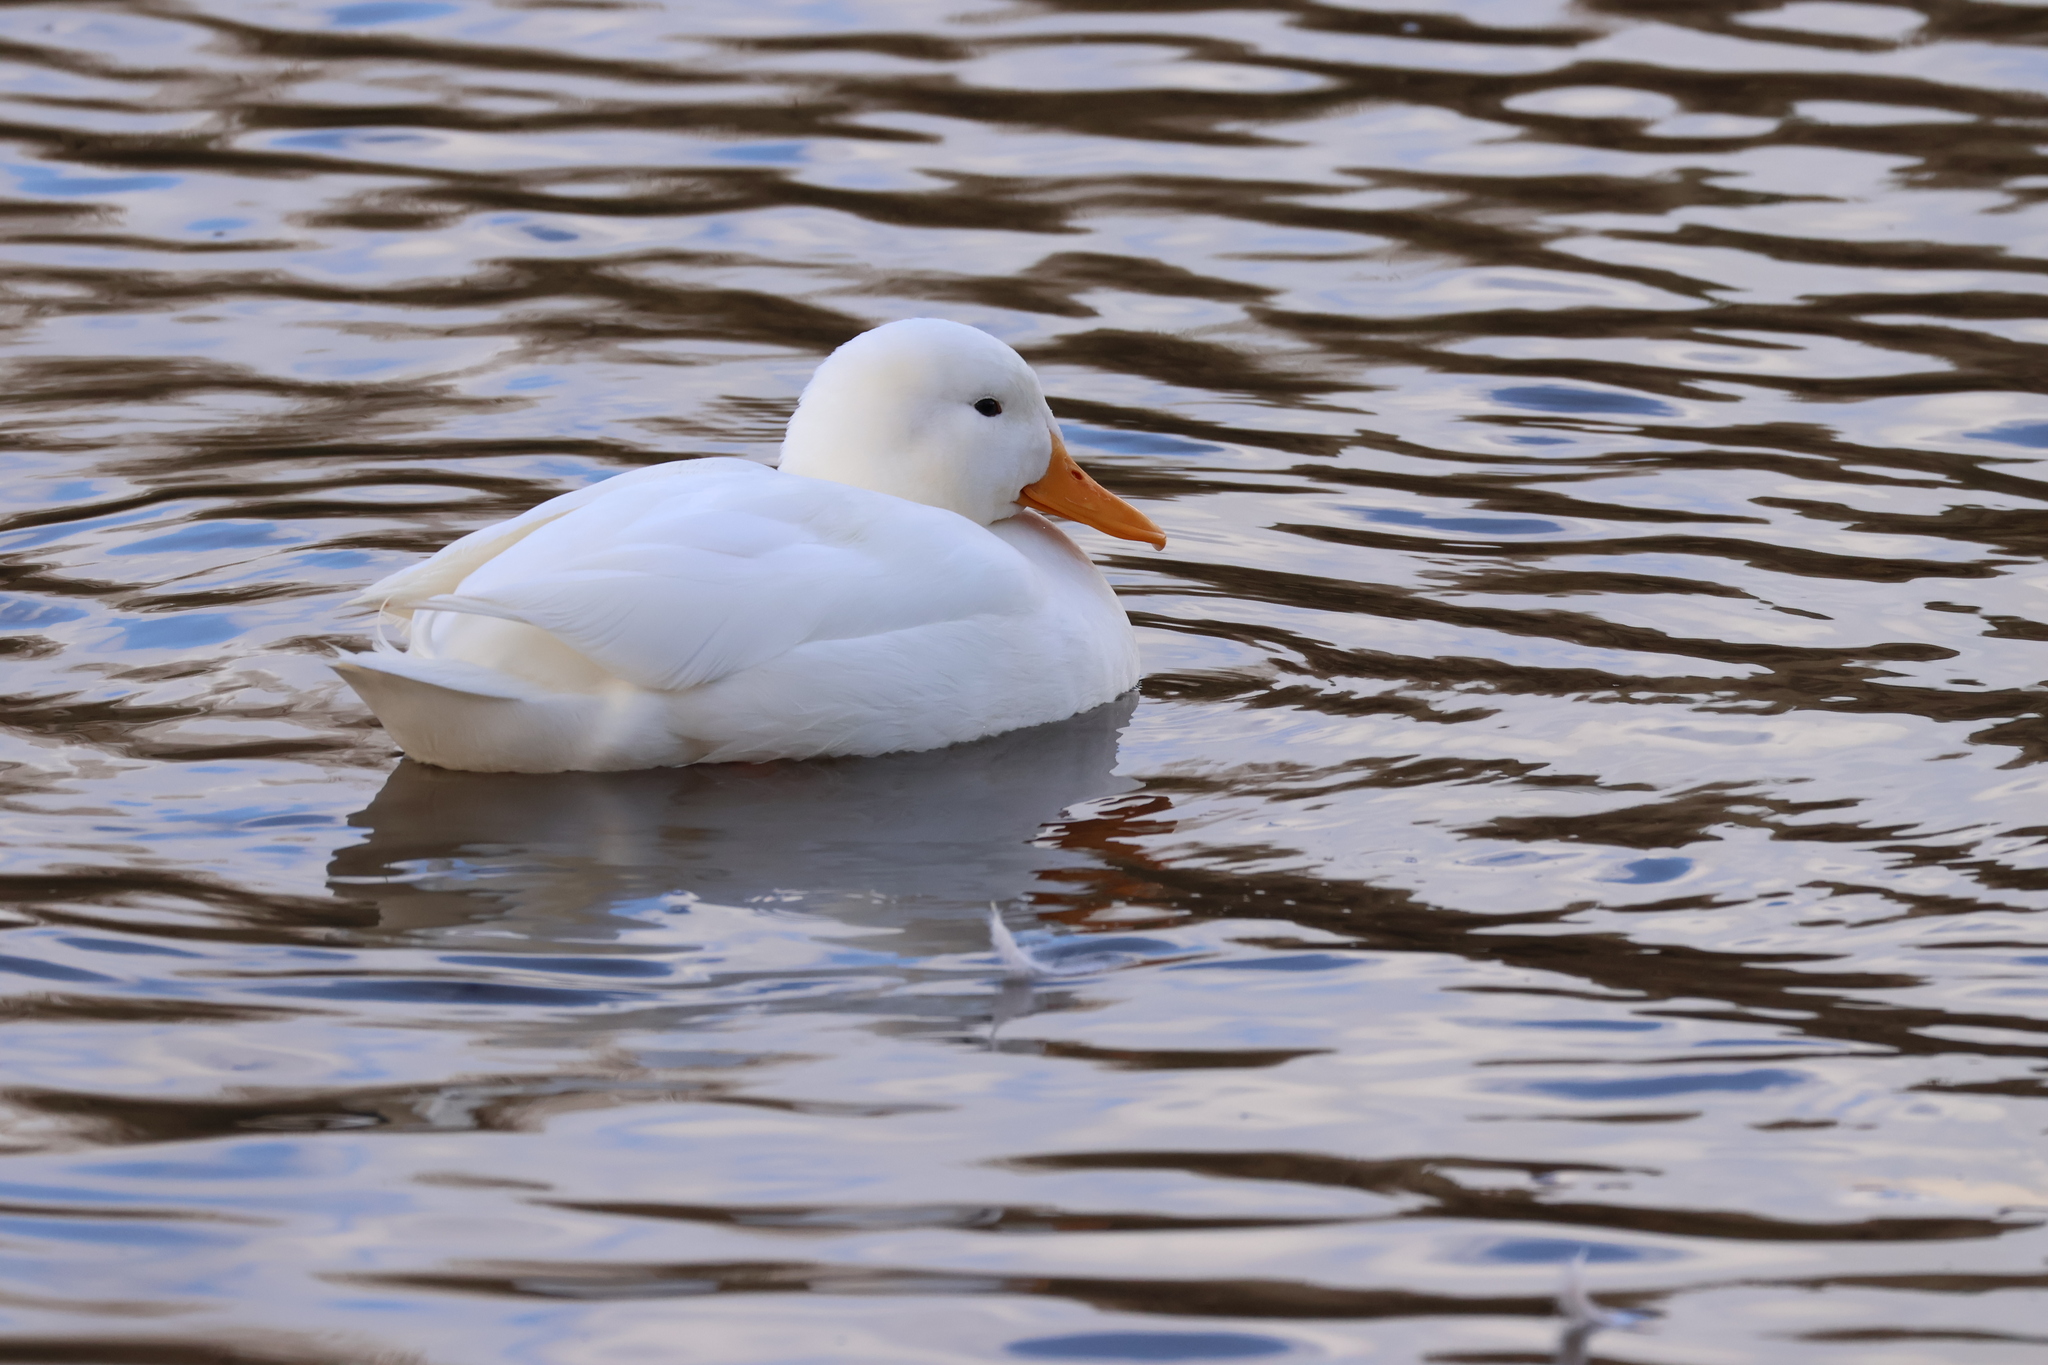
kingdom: Animalia
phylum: Chordata
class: Aves
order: Anseriformes
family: Anatidae
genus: Anas
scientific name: Anas platyrhynchos
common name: Mallard
